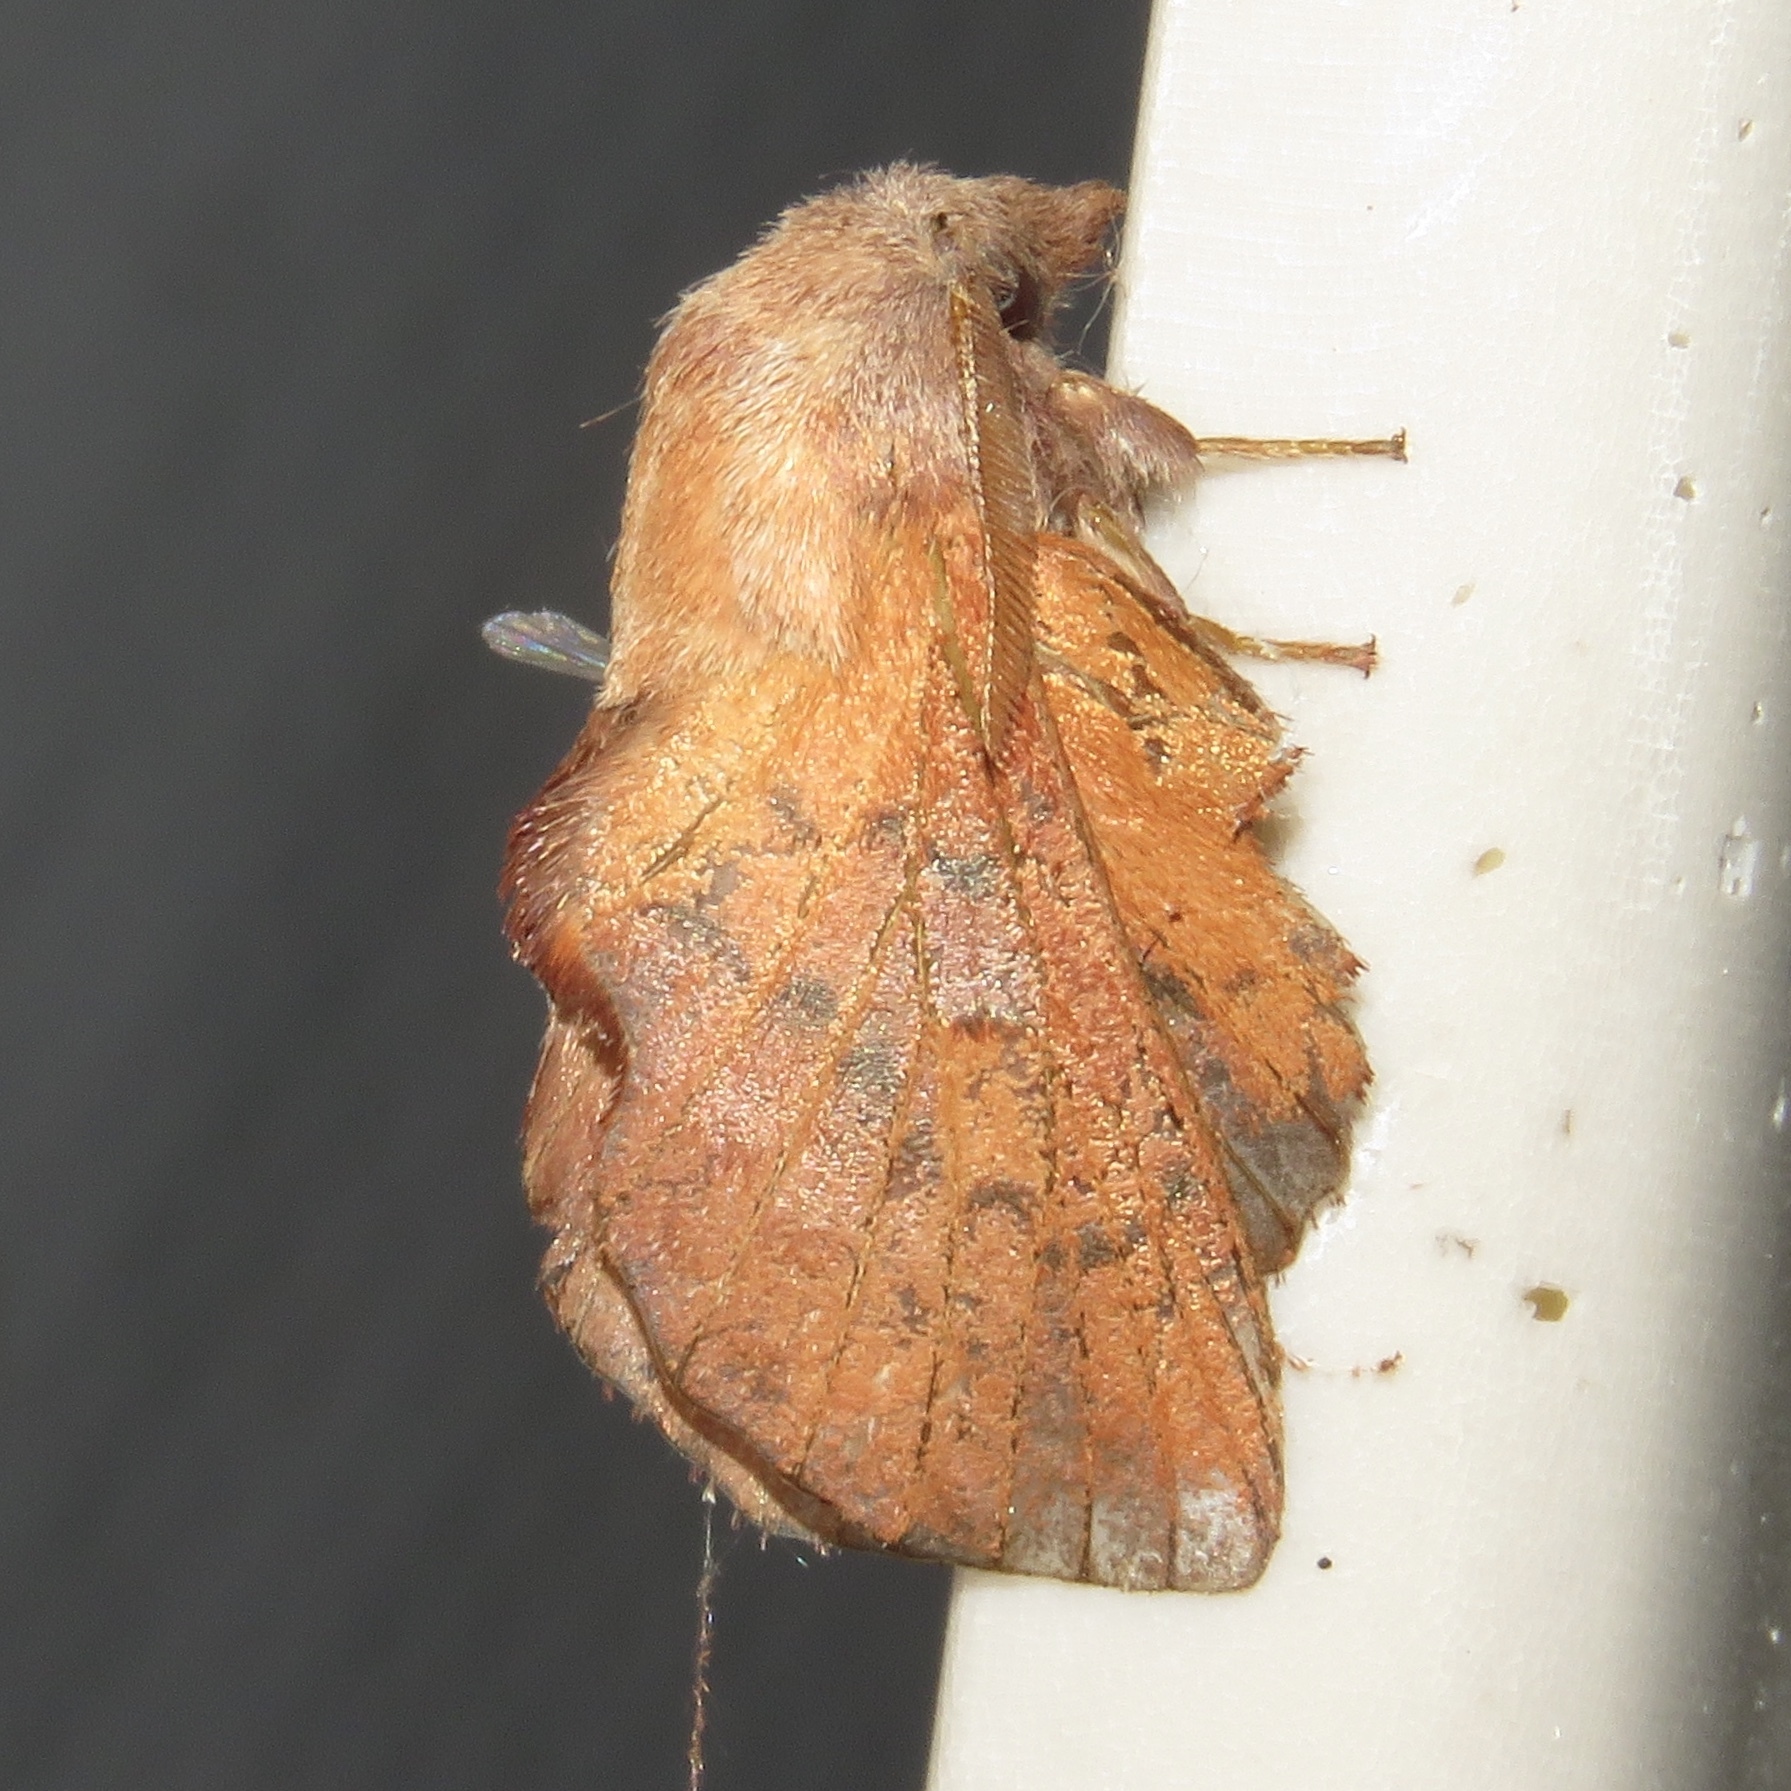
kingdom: Animalia
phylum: Arthropoda
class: Insecta
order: Lepidoptera
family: Lasiocampidae
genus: Phyllodesma
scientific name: Phyllodesma americana
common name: American lappet moth
